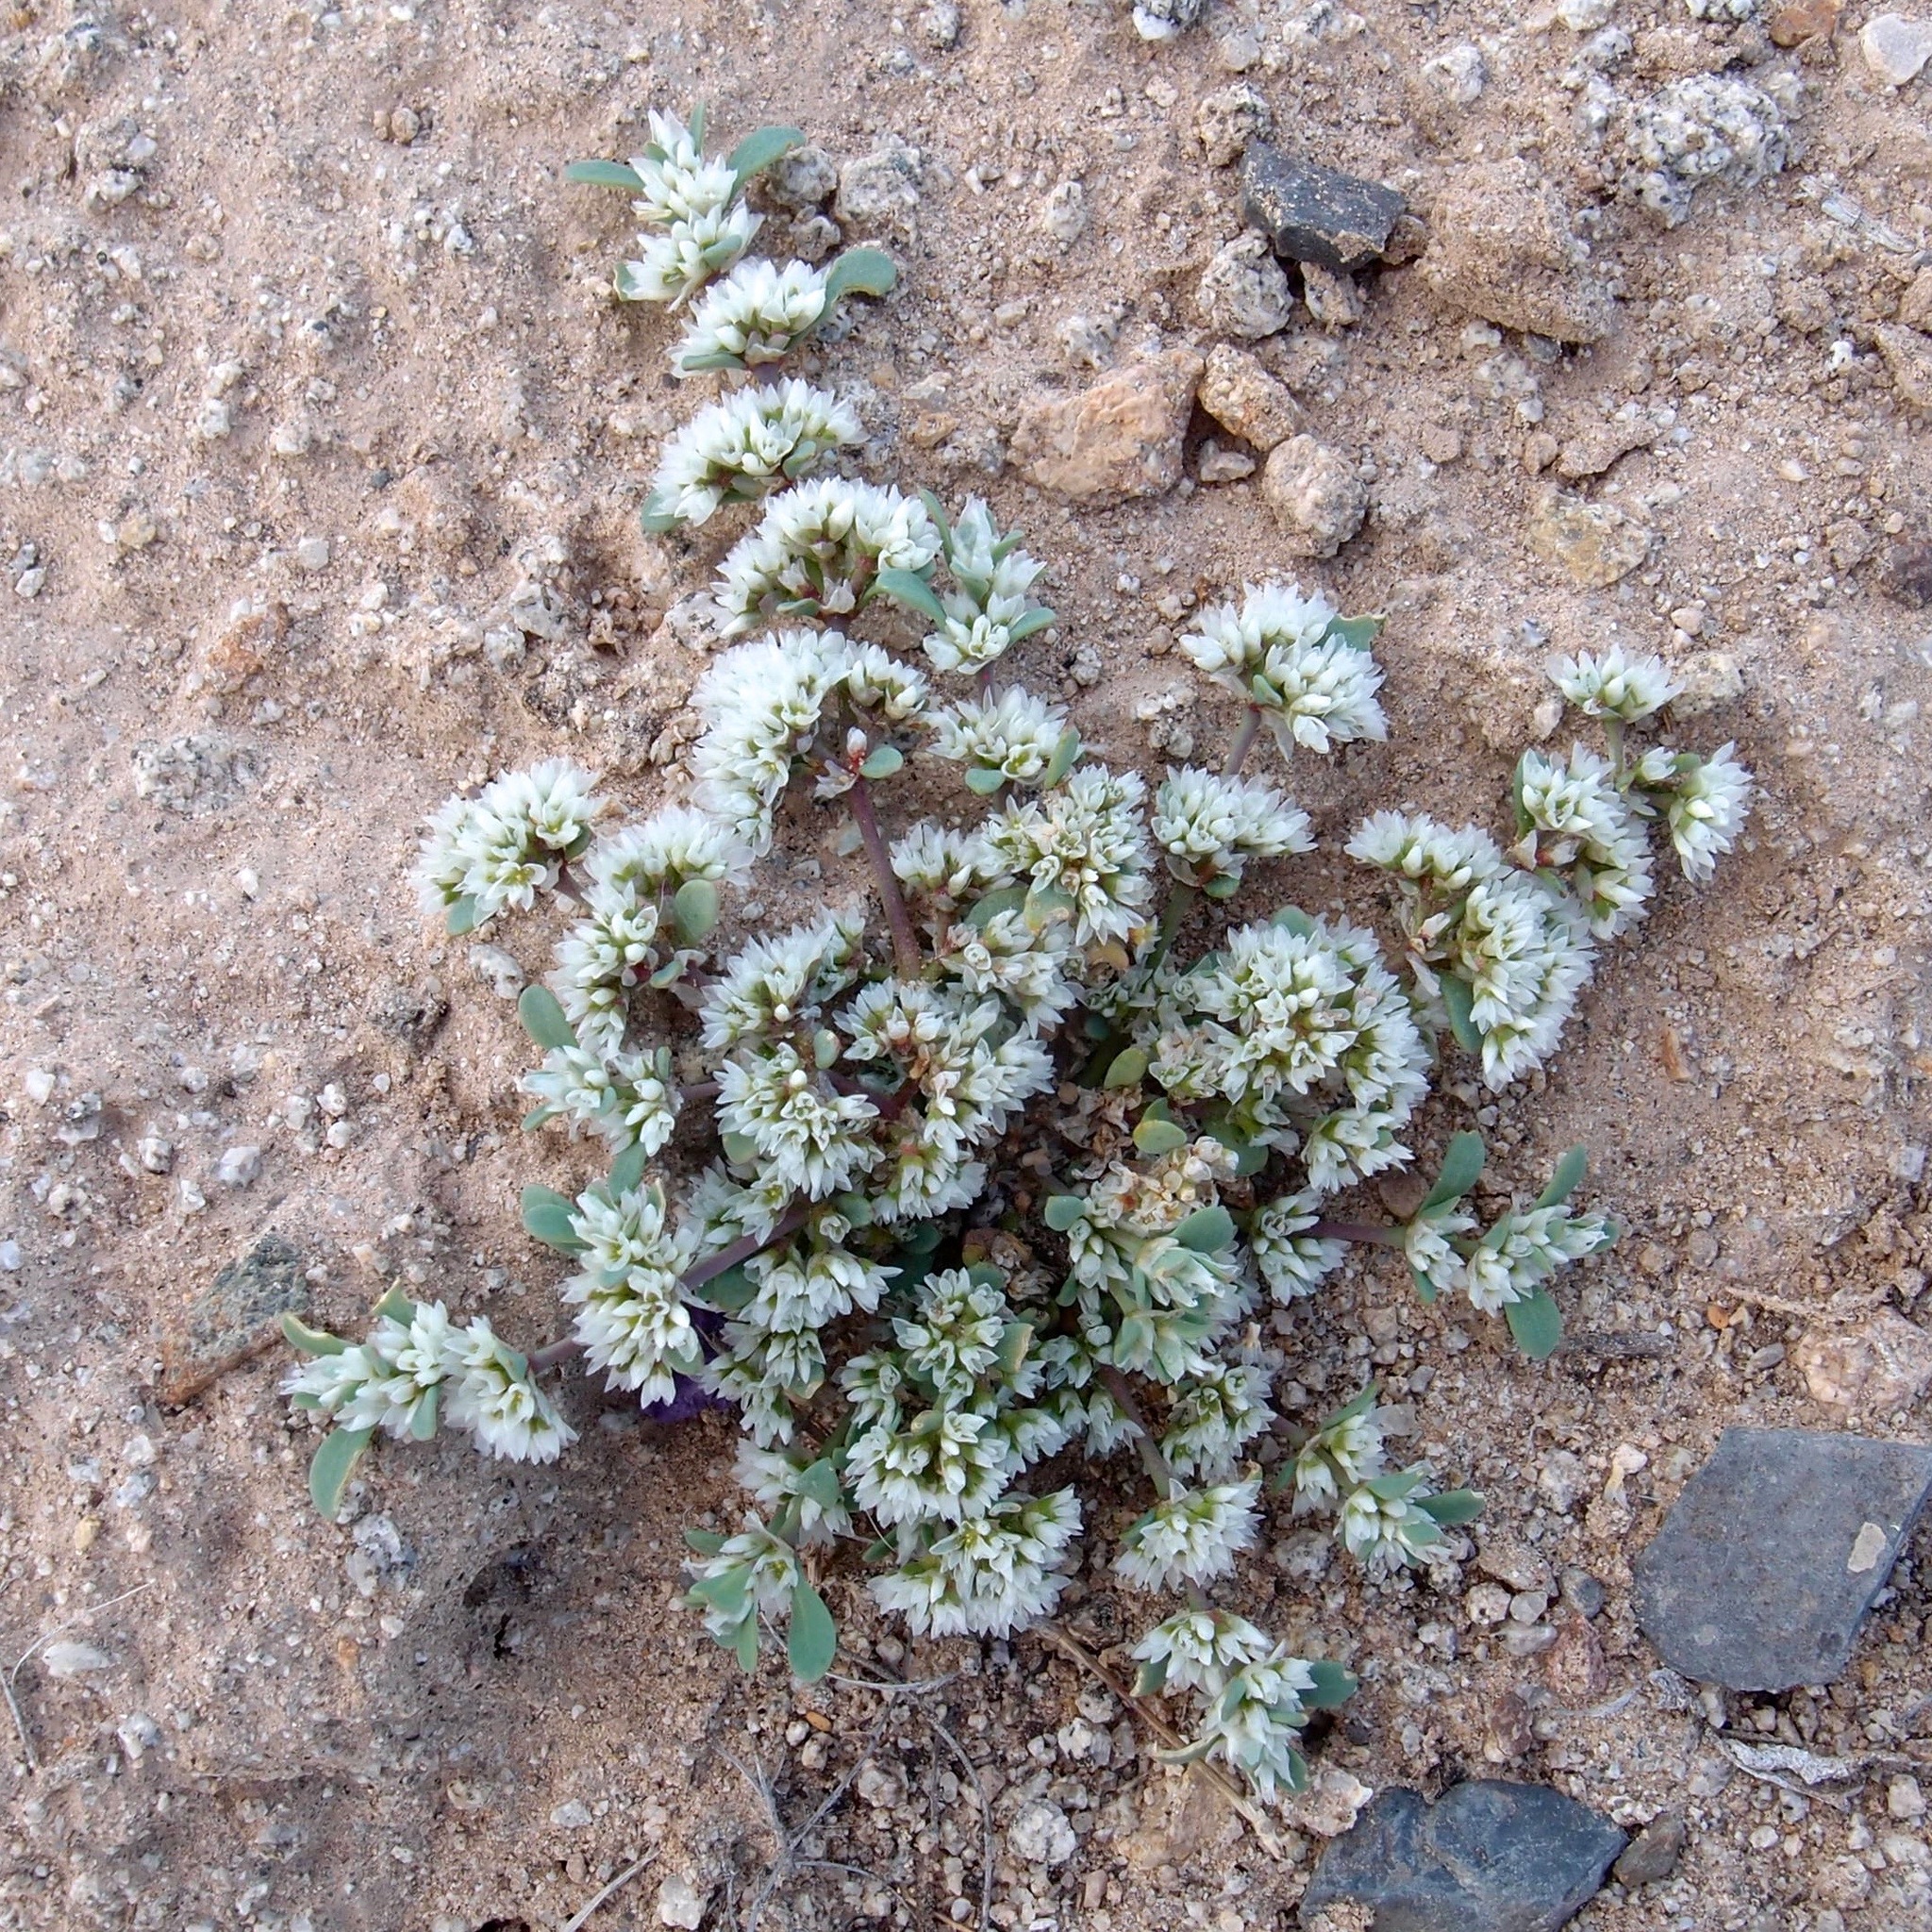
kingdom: Plantae
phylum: Tracheophyta
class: Magnoliopsida
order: Caryophyllales
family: Caryophyllaceae
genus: Achyronychia
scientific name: Achyronychia cooperi
